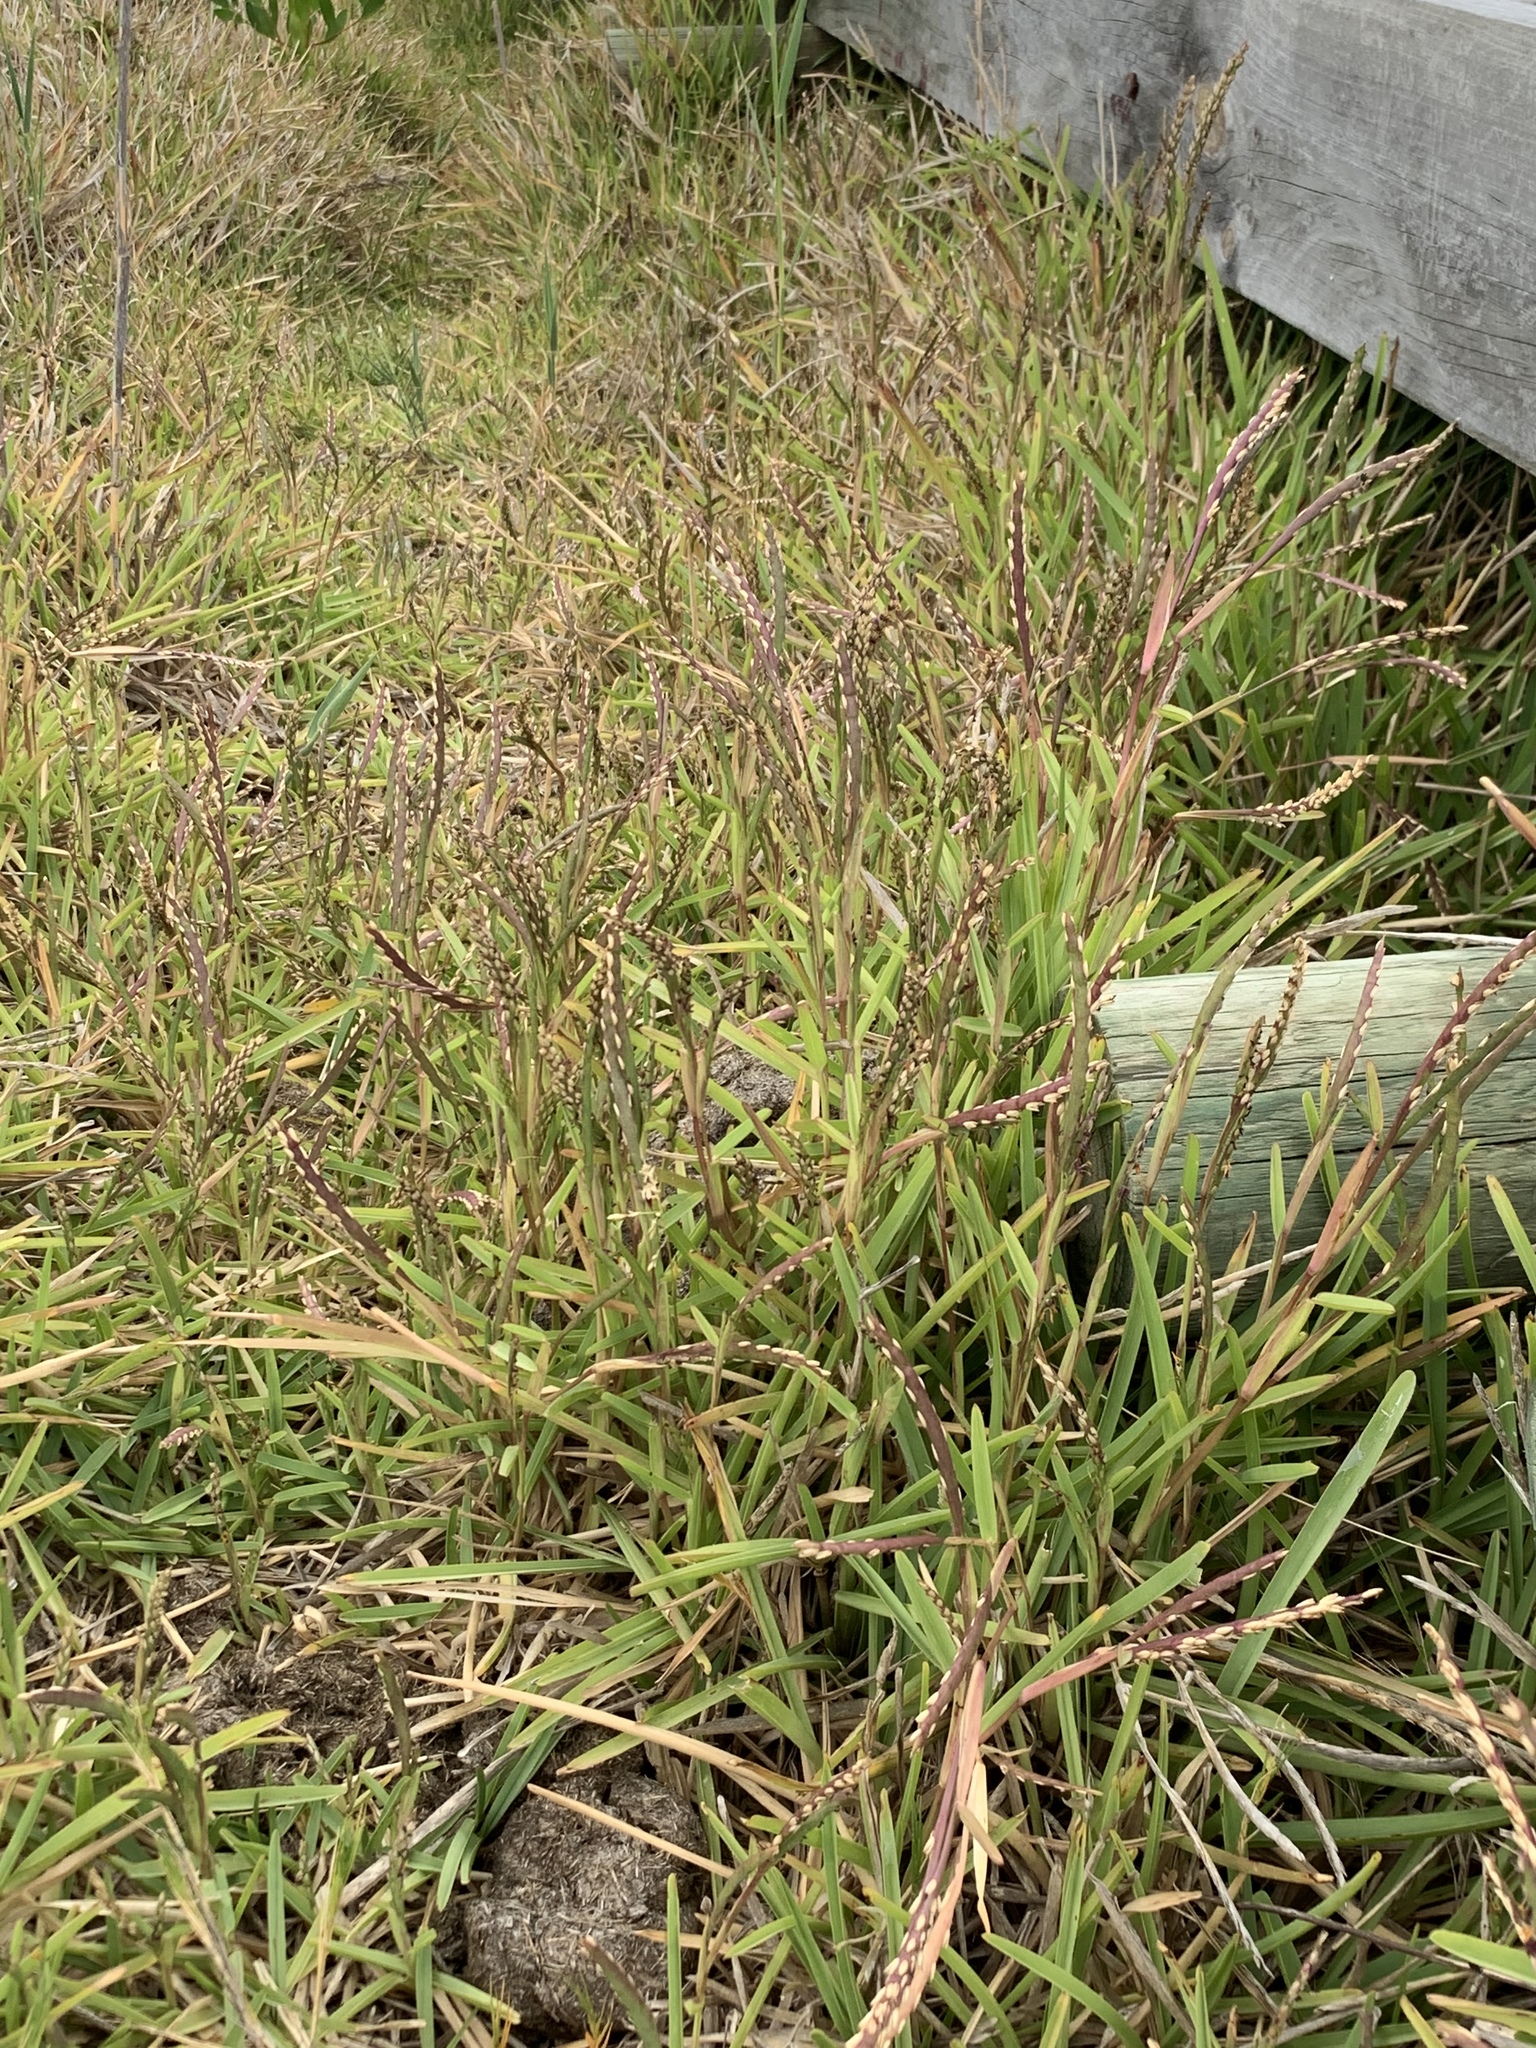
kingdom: Plantae
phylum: Tracheophyta
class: Liliopsida
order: Poales
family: Poaceae
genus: Stenotaphrum
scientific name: Stenotaphrum secundatum
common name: St. augustine grass
